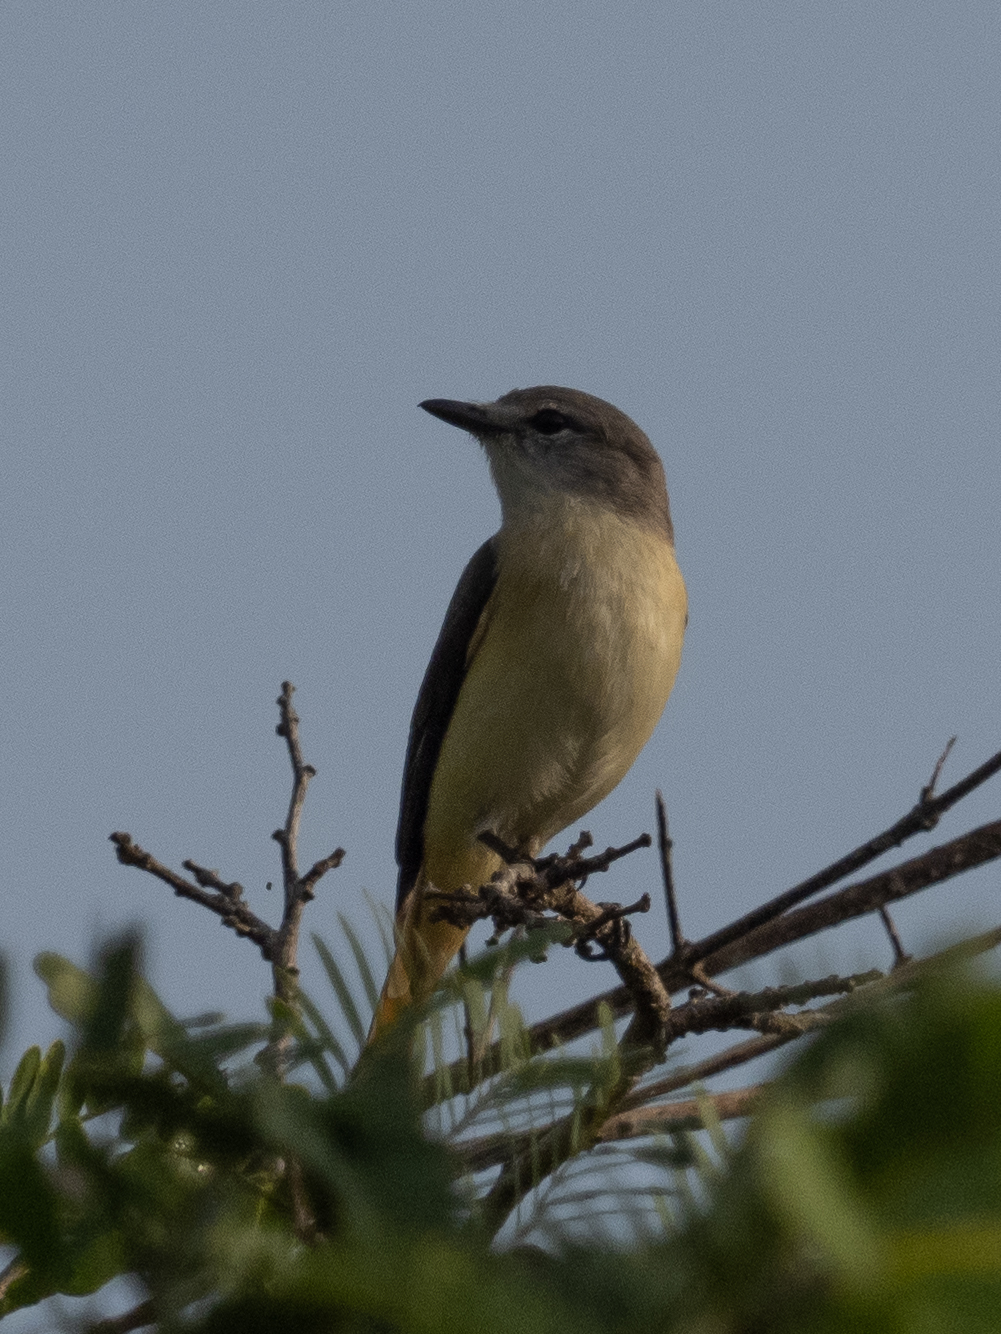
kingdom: Animalia
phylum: Chordata
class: Aves
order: Passeriformes
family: Campephagidae
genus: Pericrocotus
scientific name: Pericrocotus cinnamomeus
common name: Small minivet
